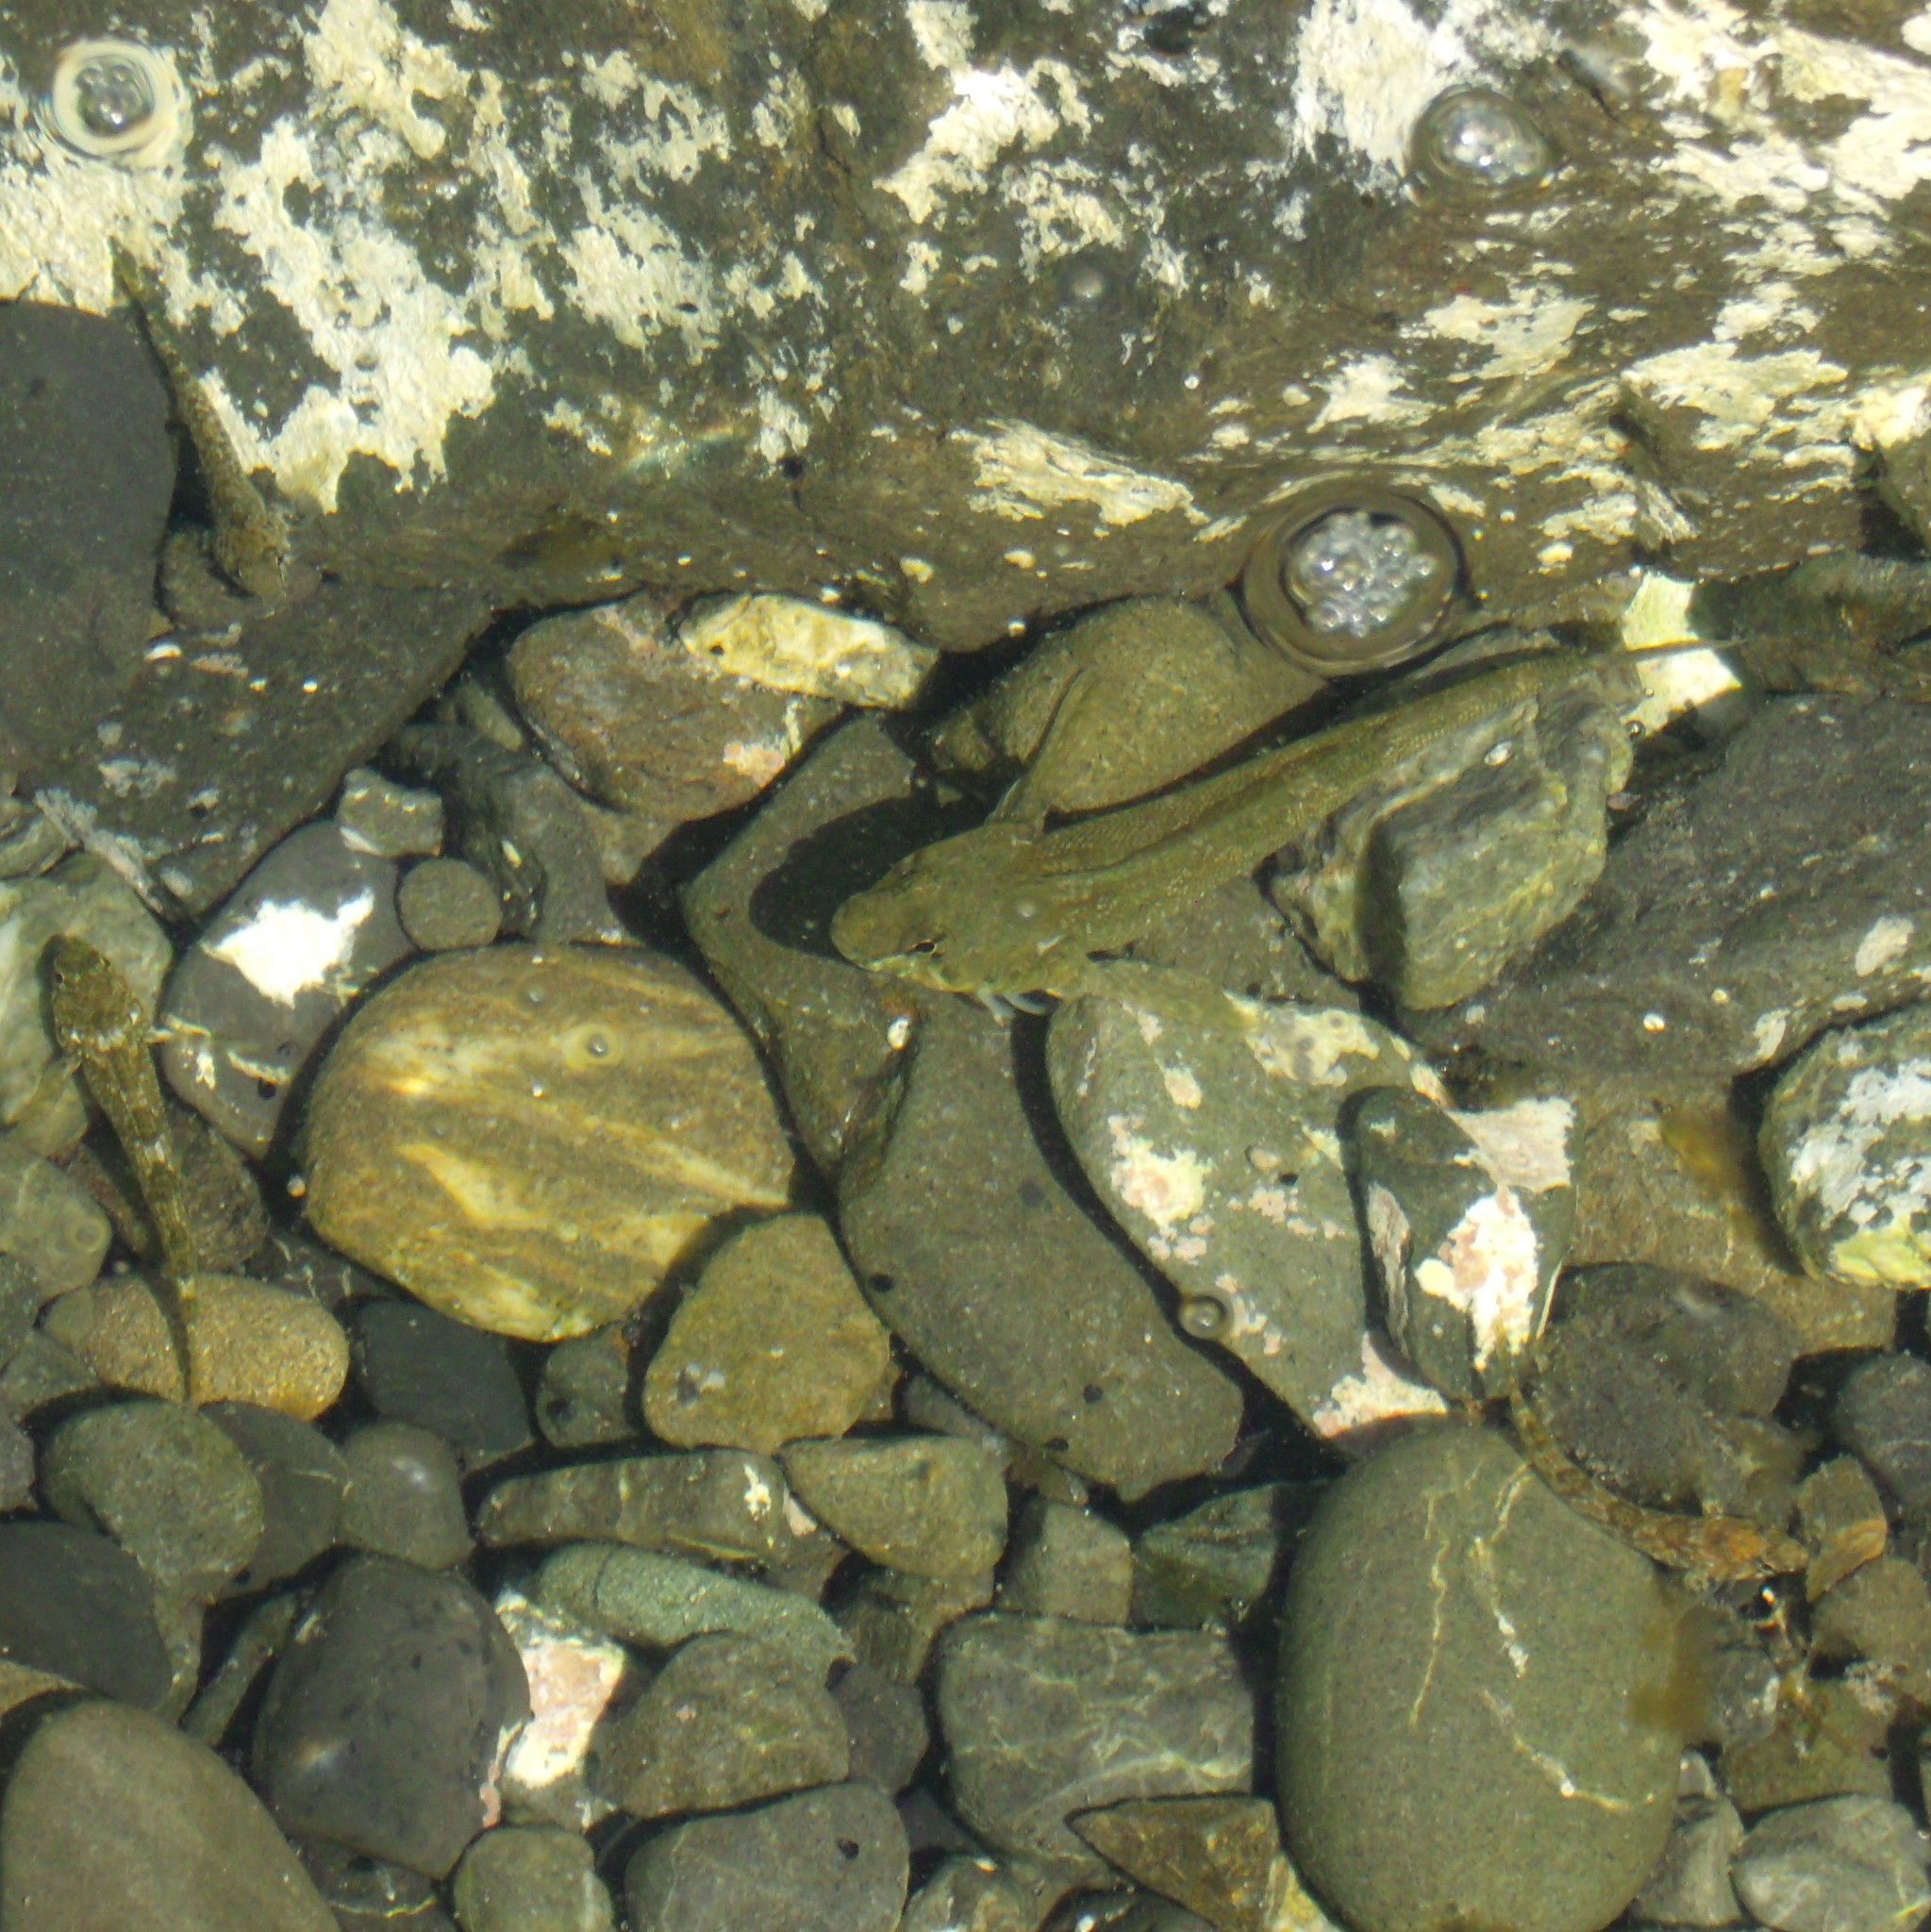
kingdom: Animalia
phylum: Chordata
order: Perciformes
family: Tripterygiidae
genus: Bellapiscis
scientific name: Bellapiscis medius
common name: Twister
